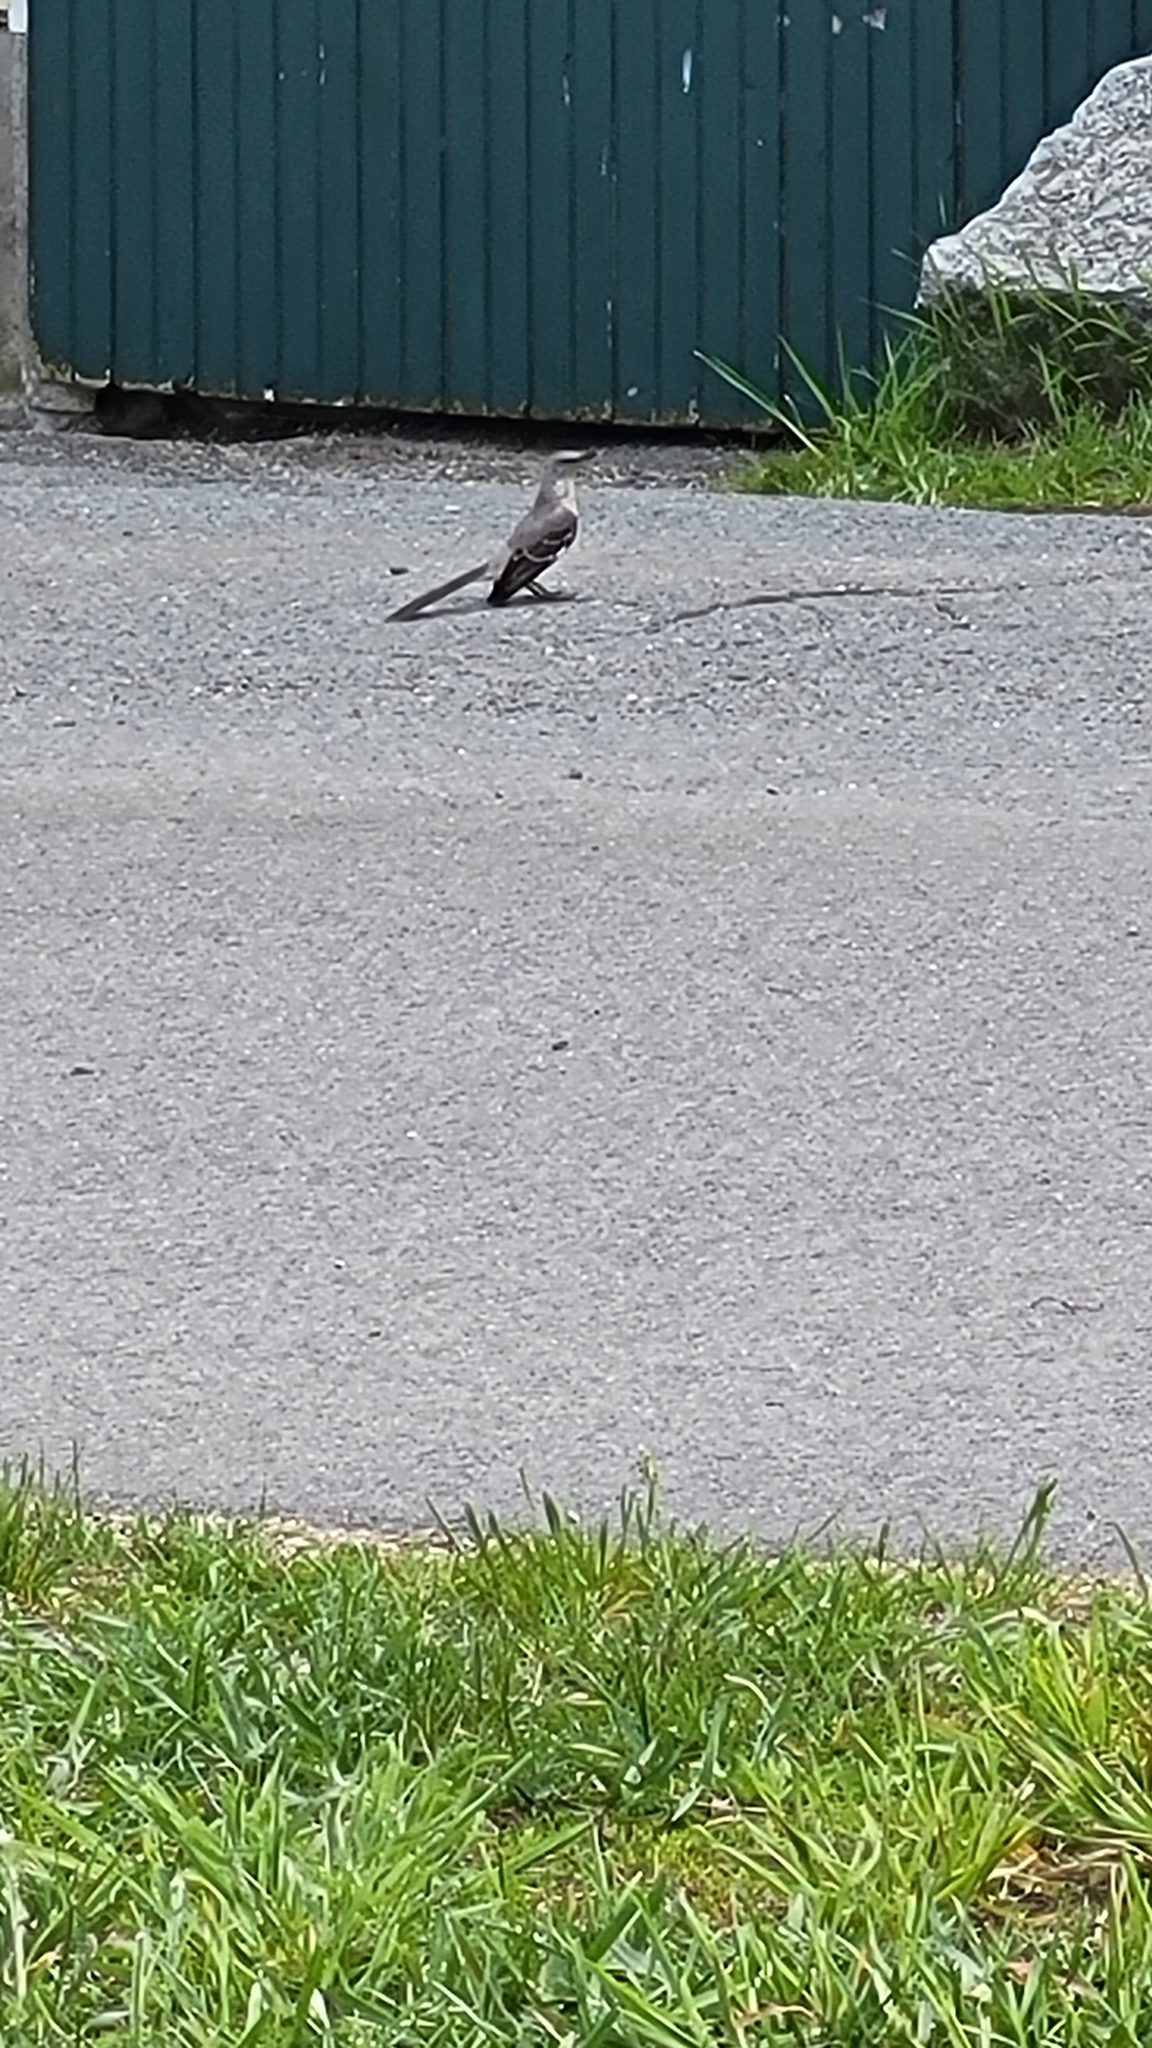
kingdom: Animalia
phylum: Chordata
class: Aves
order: Passeriformes
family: Mimidae
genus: Mimus
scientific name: Mimus polyglottos
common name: Northern mockingbird
